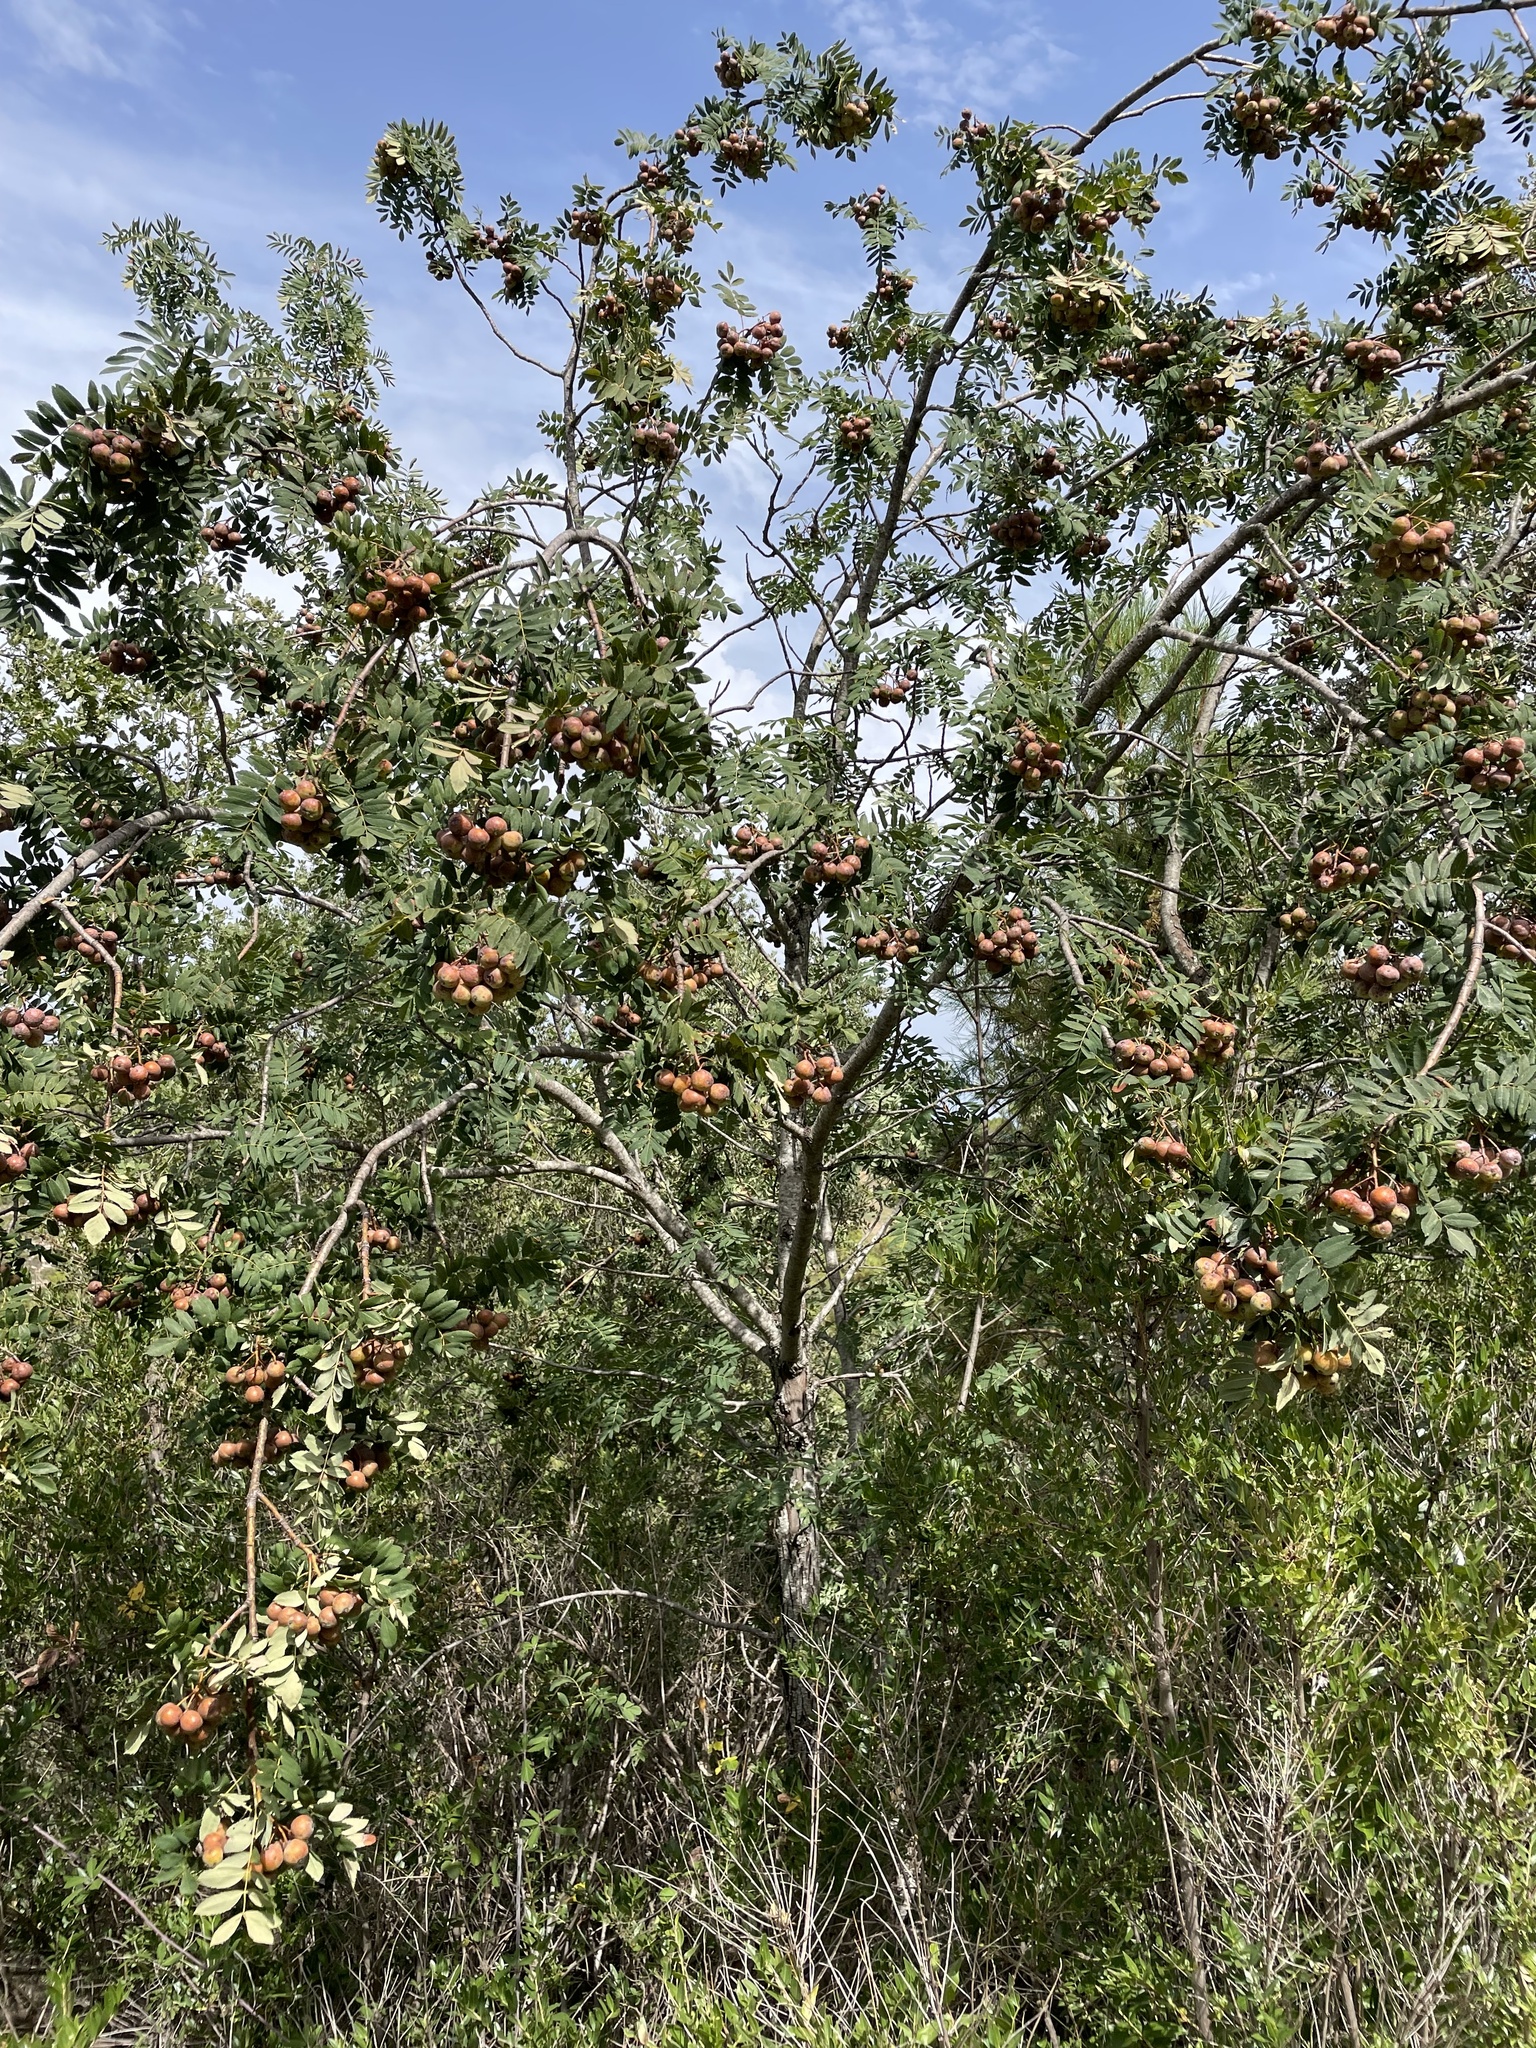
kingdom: Plantae
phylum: Tracheophyta
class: Magnoliopsida
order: Rosales
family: Rosaceae
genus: Cormus
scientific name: Cormus domestica
